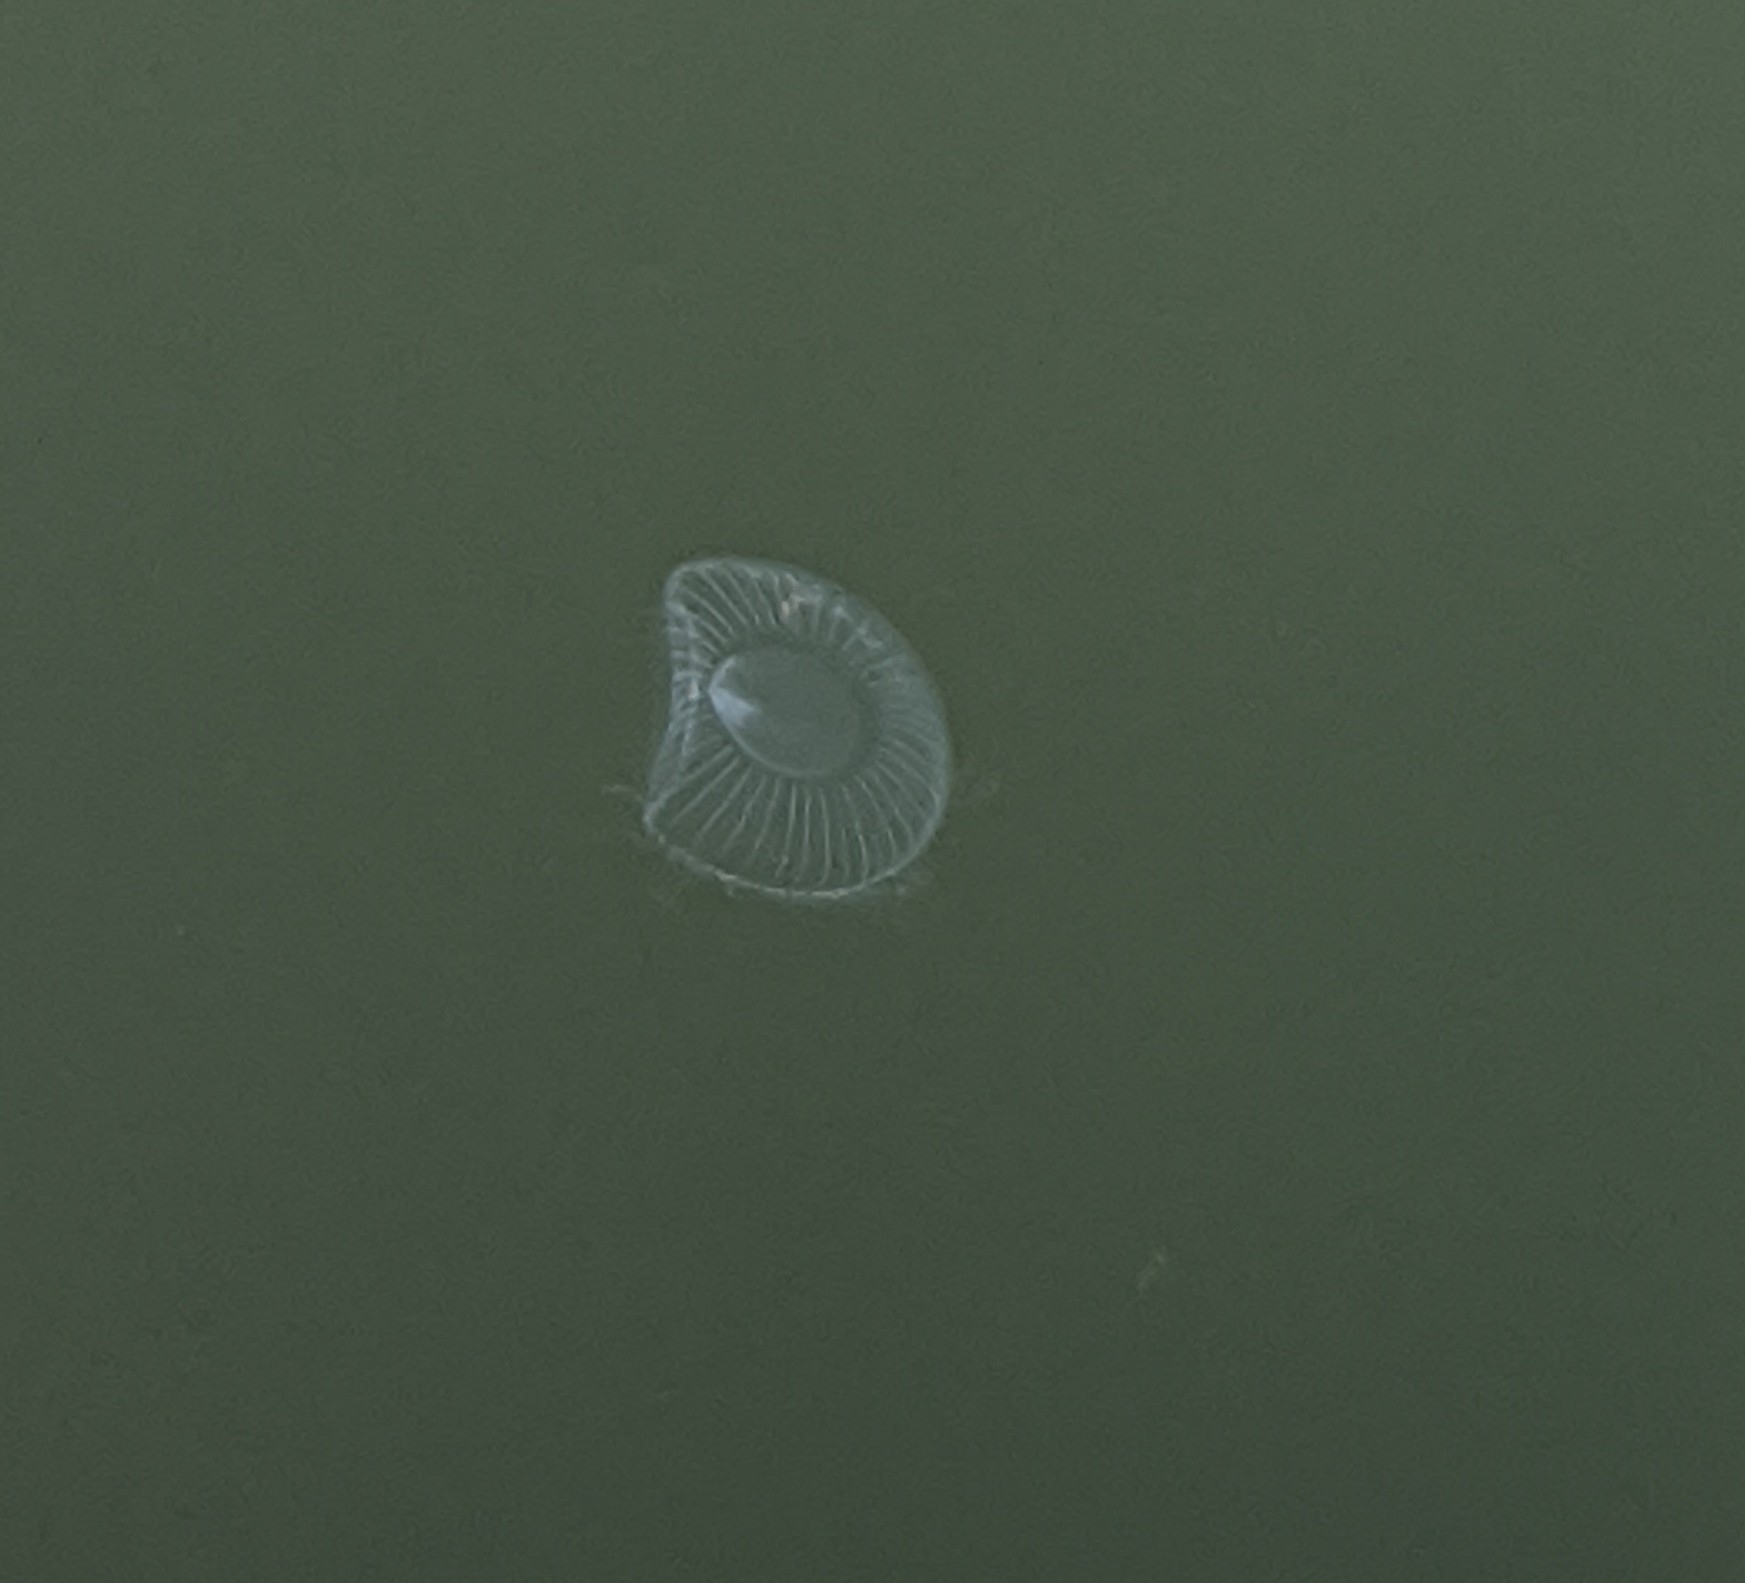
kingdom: Animalia
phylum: Cnidaria
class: Hydrozoa
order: Leptothecata
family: Aequoreidae
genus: Aequorea
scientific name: Aequorea victoria
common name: Water jellyfish
